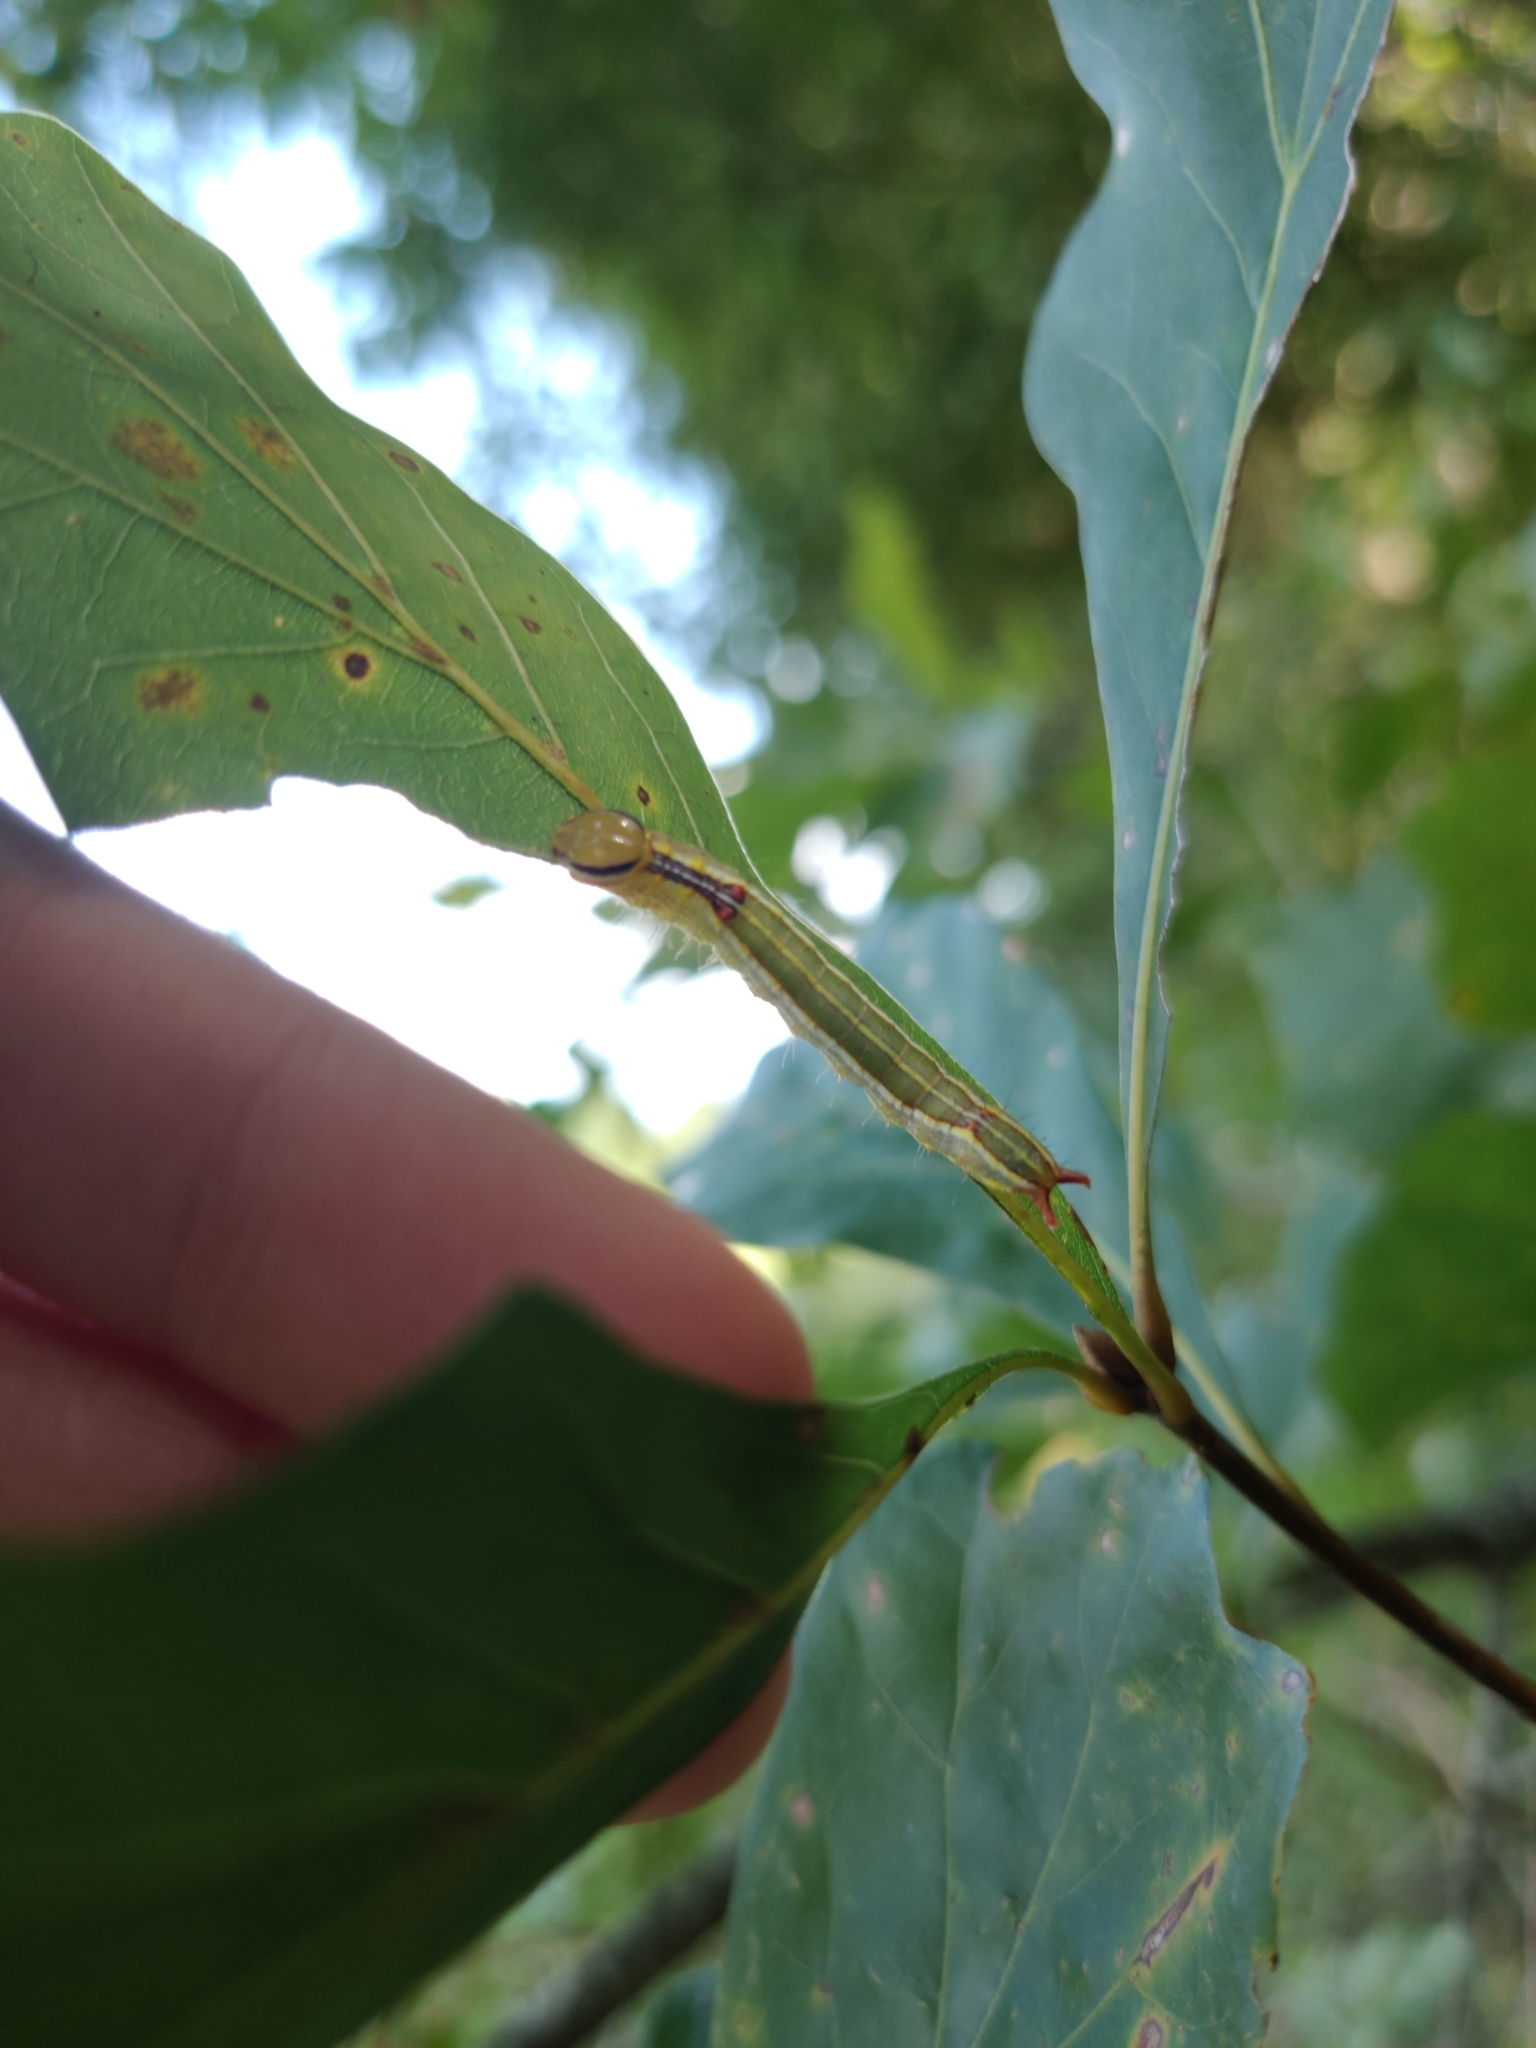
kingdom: Animalia
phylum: Arthropoda
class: Insecta
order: Lepidoptera
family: Notodontidae
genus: Lochmaeus
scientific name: Lochmaeus manteo
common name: Variable oakleaf caterpillar moth
